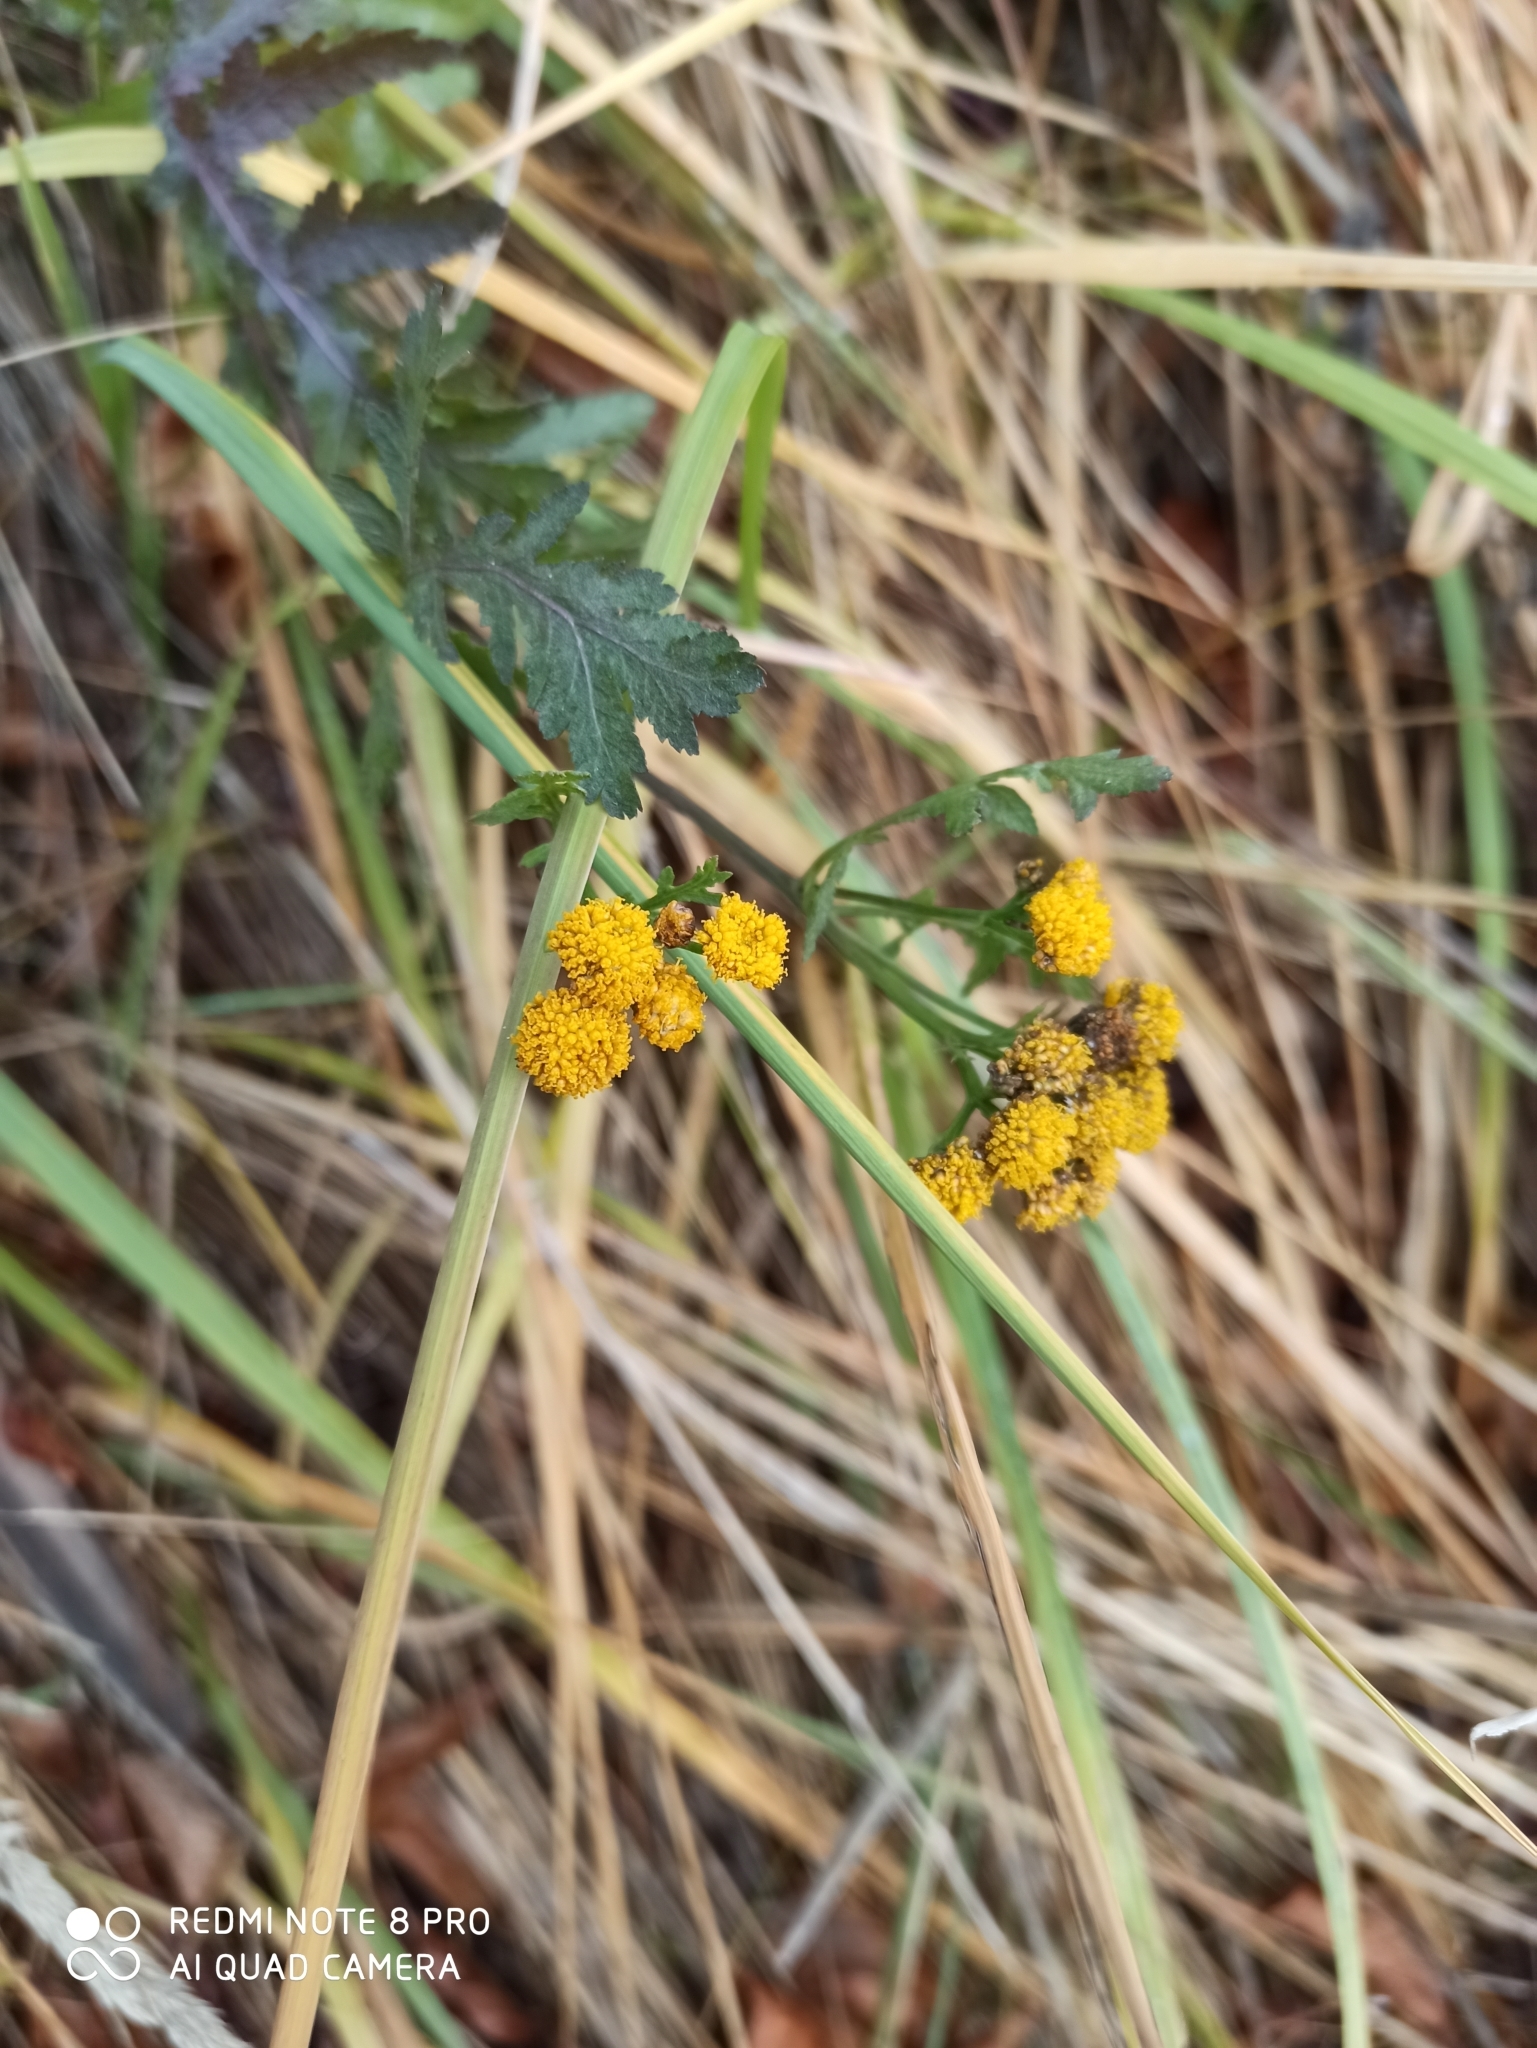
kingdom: Plantae
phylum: Tracheophyta
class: Magnoliopsida
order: Asterales
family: Asteraceae
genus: Tanacetum
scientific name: Tanacetum vulgare
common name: Common tansy
